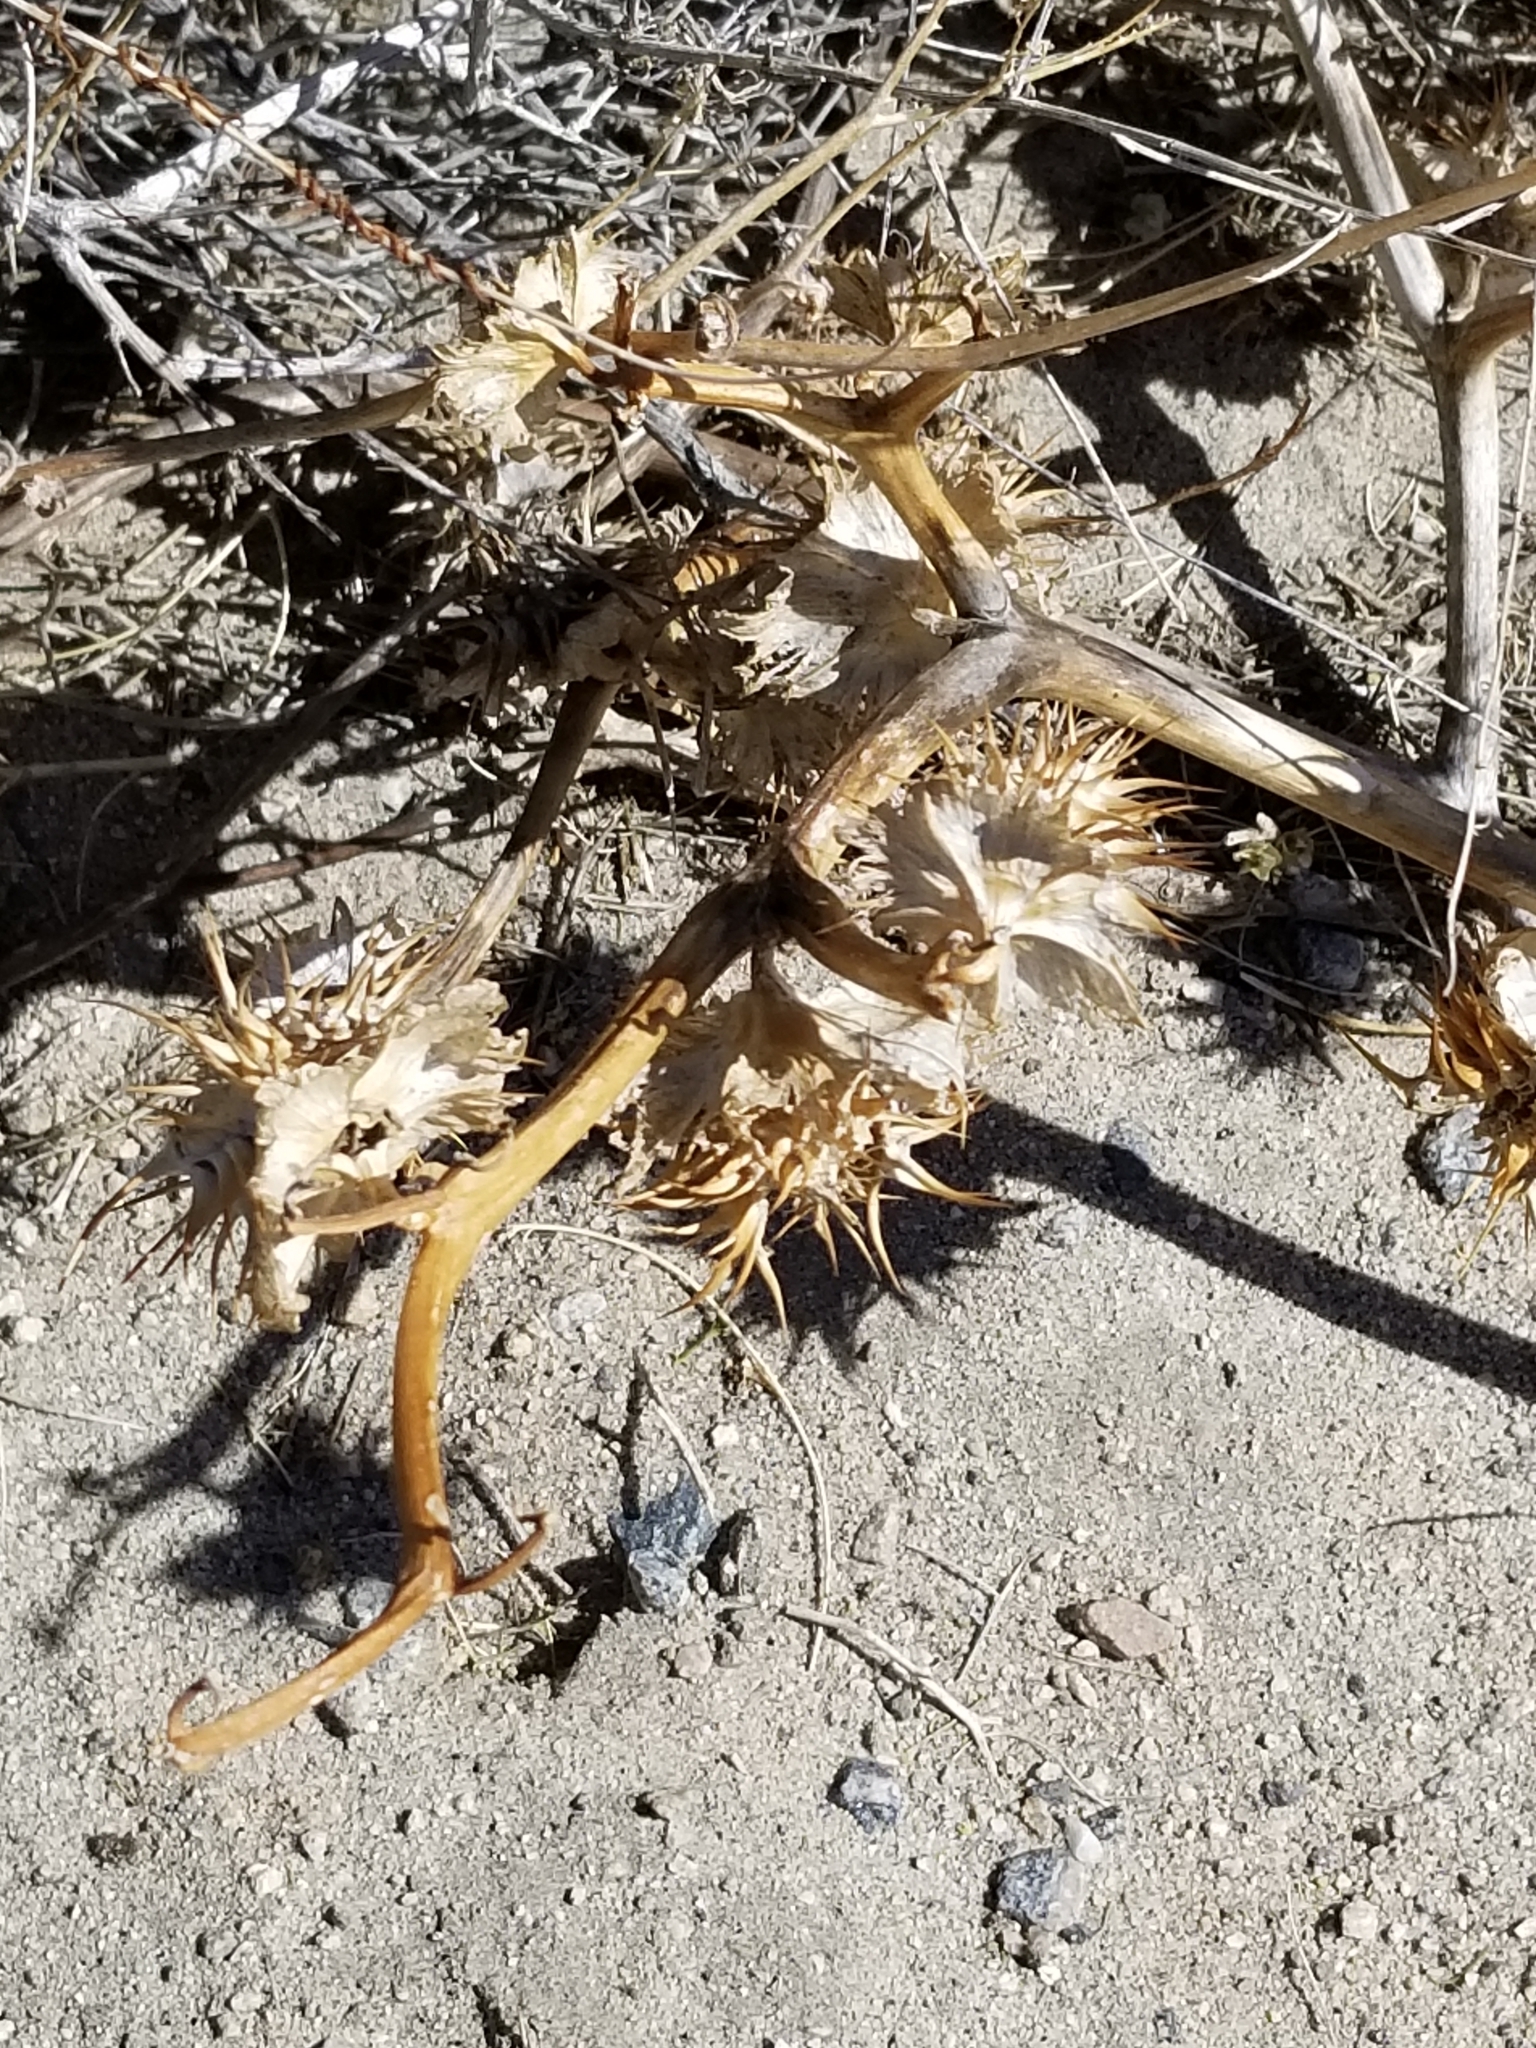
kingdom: Plantae
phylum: Tracheophyta
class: Magnoliopsida
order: Solanales
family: Solanaceae
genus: Datura
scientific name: Datura discolor
